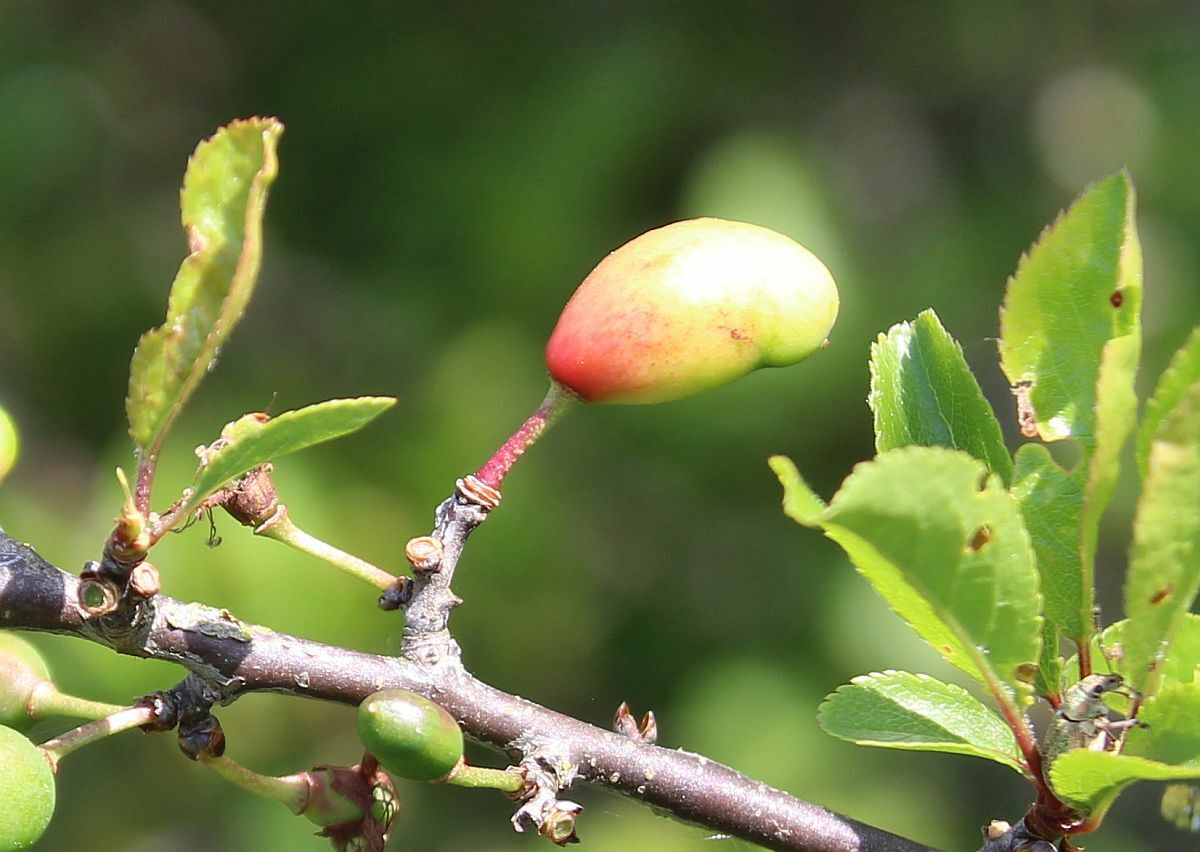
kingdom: Fungi
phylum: Ascomycota
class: Taphrinomycetes
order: Taphrinales
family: Taphrinaceae
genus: Taphrina
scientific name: Taphrina pruni
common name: Pocket plum
